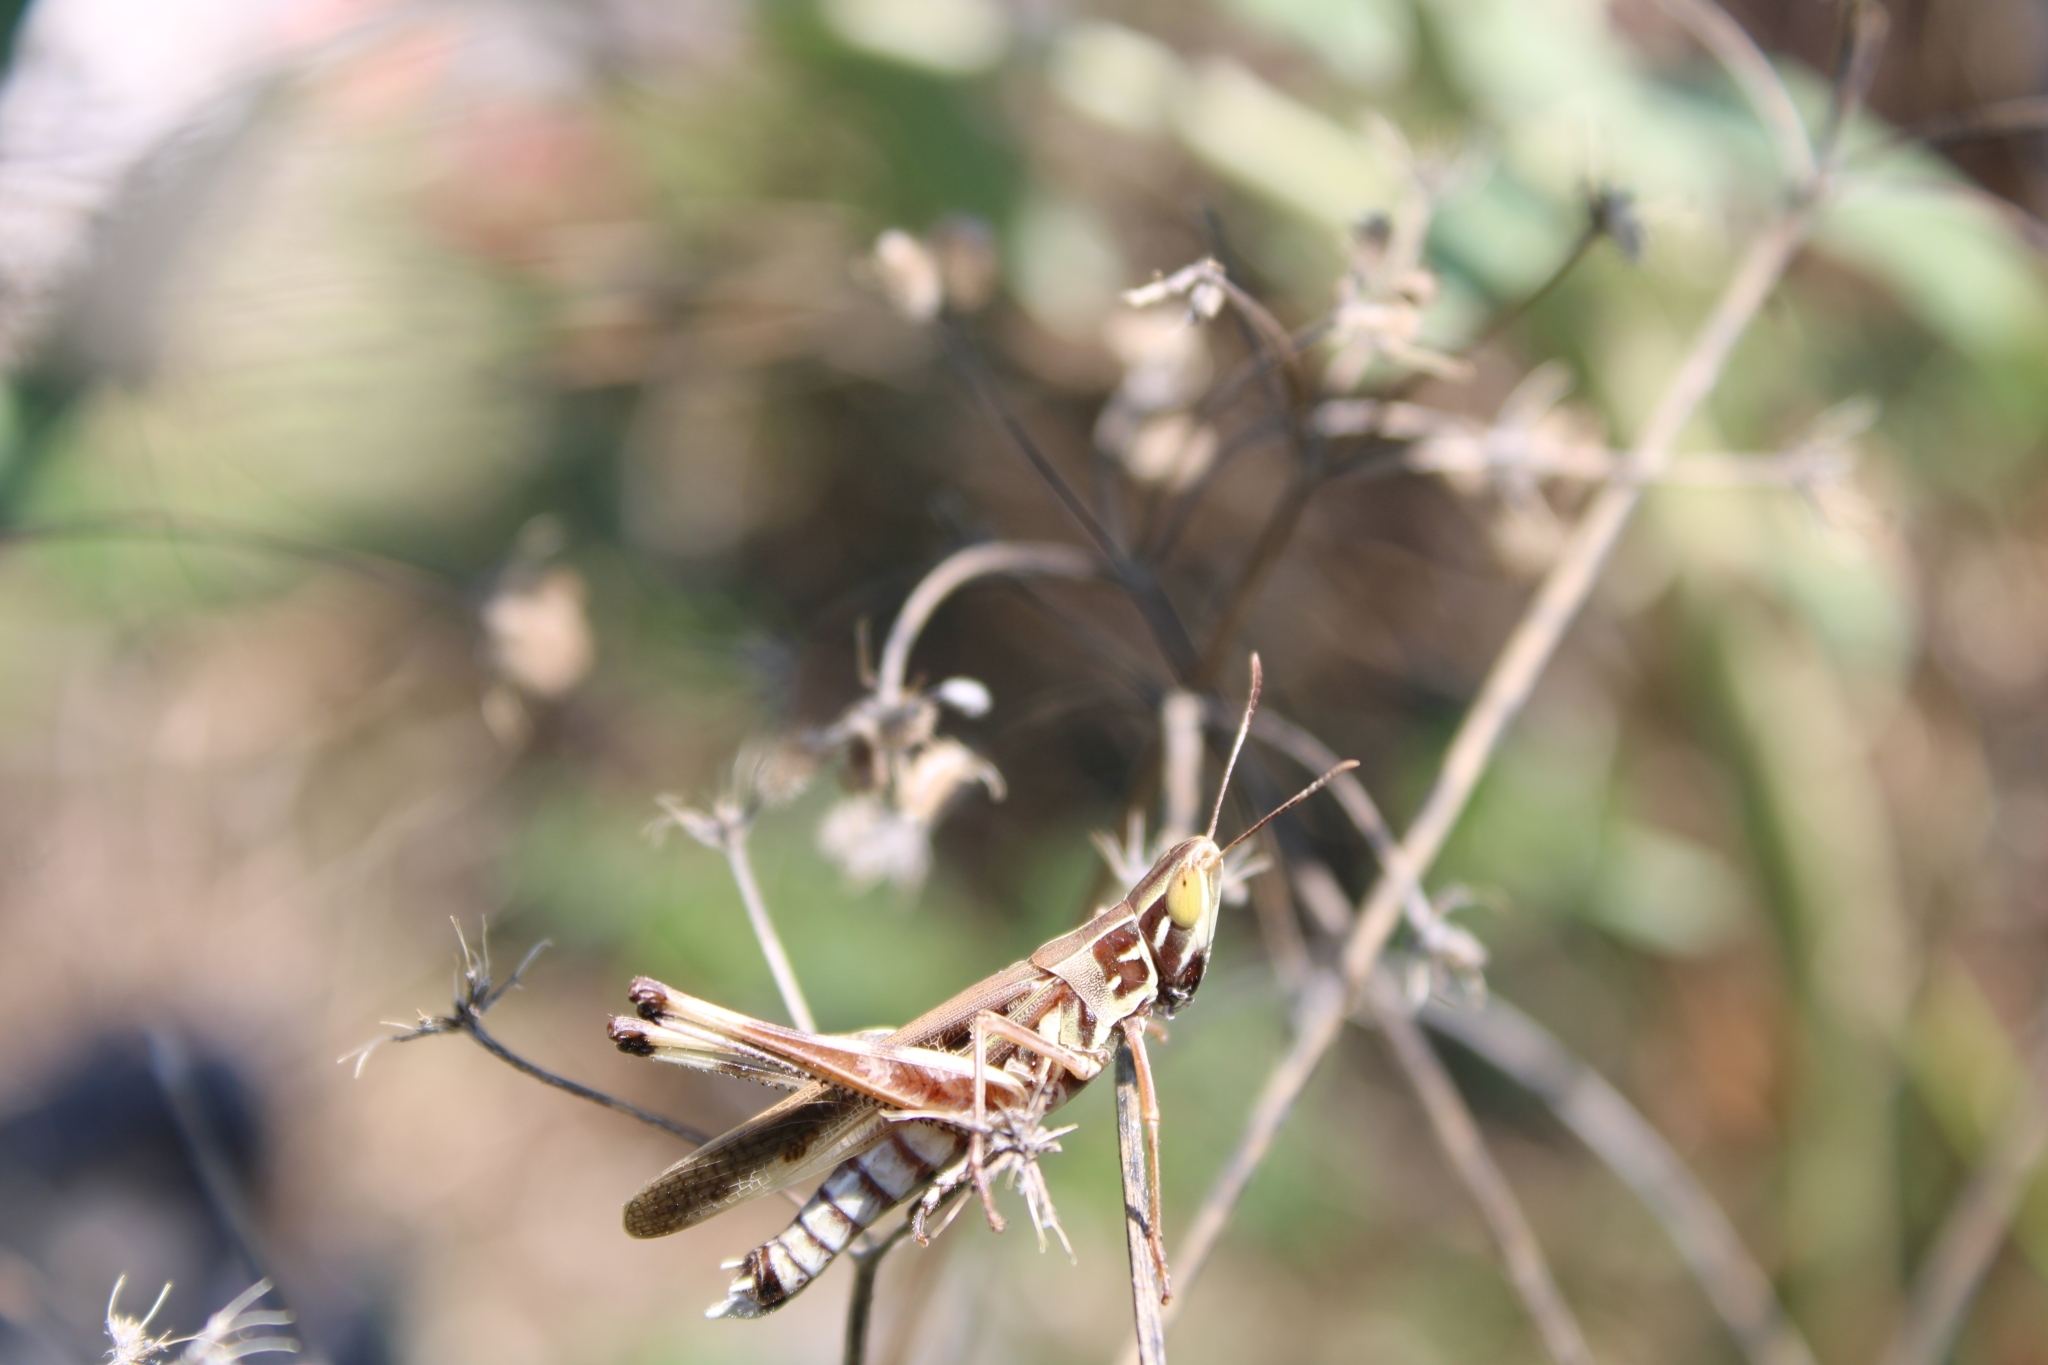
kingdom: Animalia
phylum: Arthropoda
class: Insecta
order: Orthoptera
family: Acrididae
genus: Syrbula
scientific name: Syrbula admirabilis
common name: Handsome grasshopper
